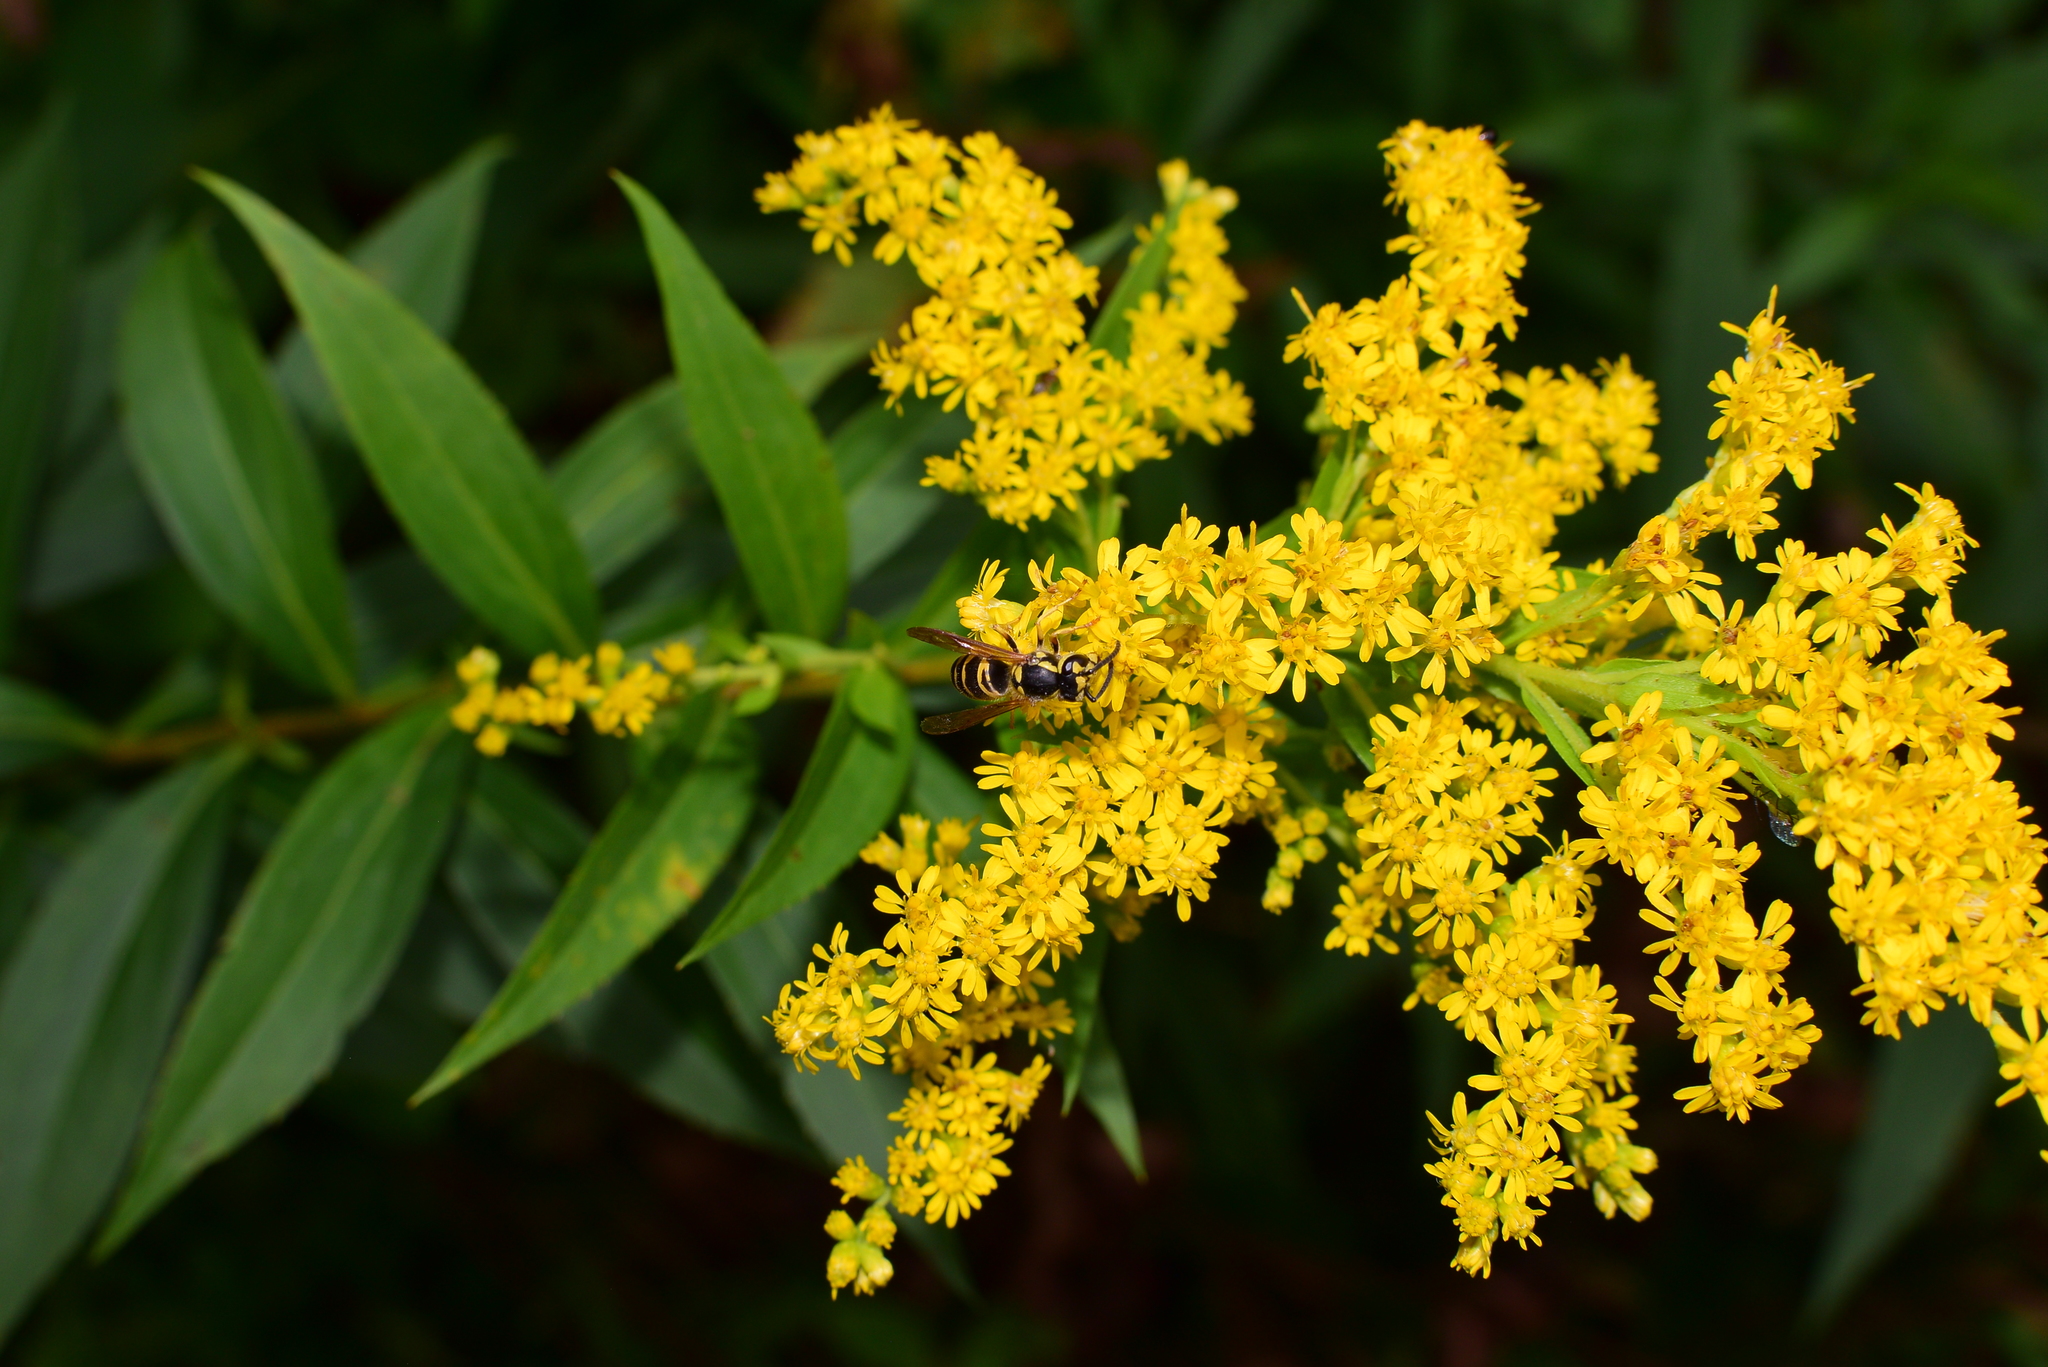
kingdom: Animalia
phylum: Arthropoda
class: Insecta
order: Hymenoptera
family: Vespidae
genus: Vespula
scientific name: Vespula maculifrons
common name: Eastern yellowjacket
